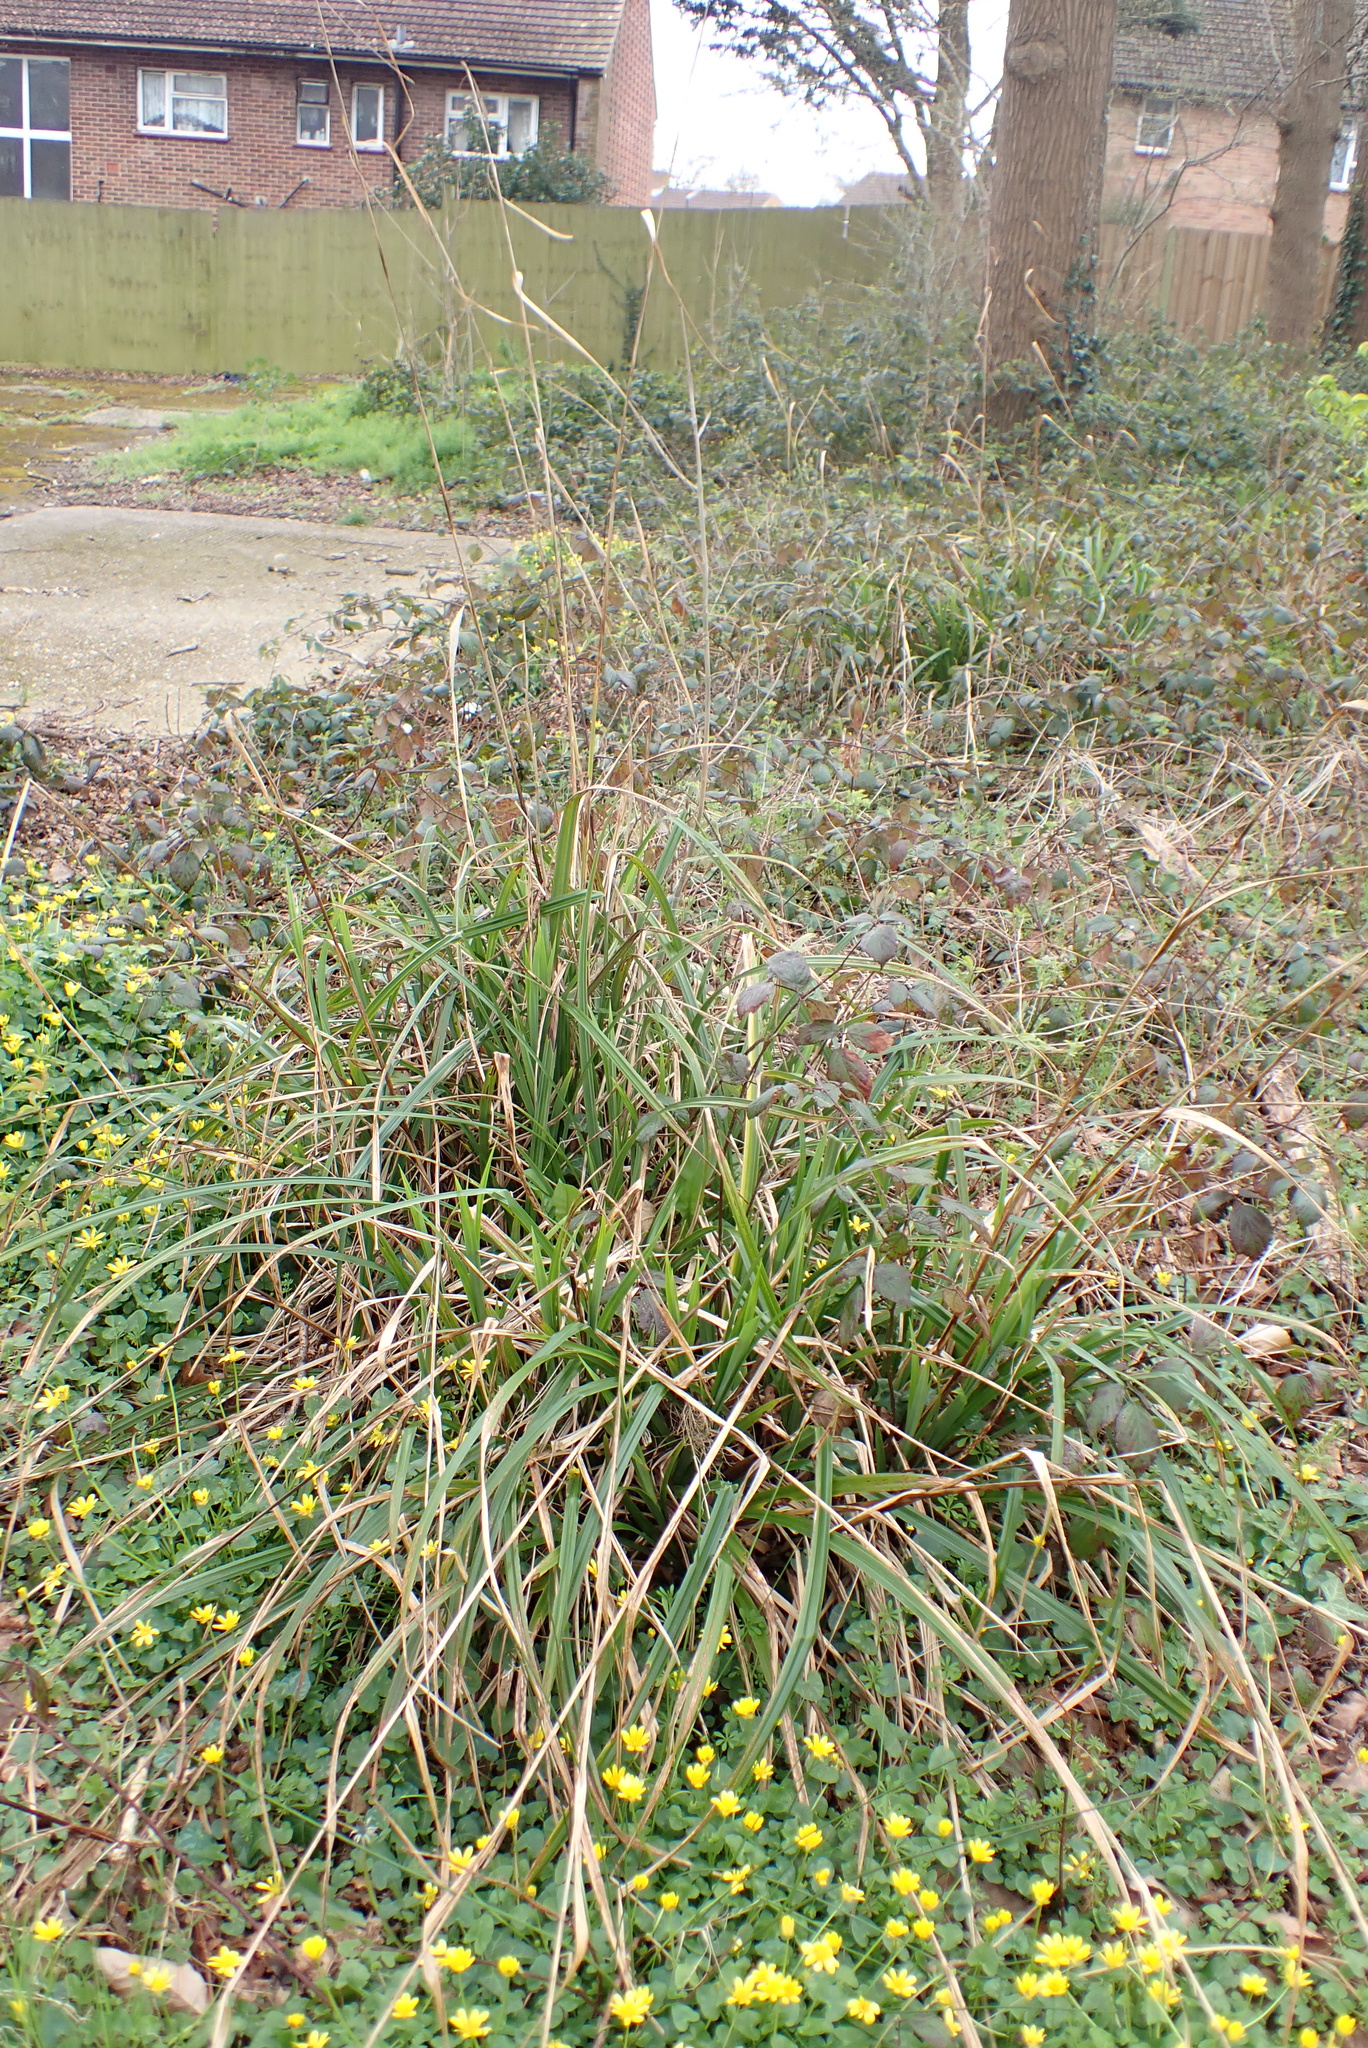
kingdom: Plantae
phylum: Tracheophyta
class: Liliopsida
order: Poales
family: Cyperaceae
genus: Carex
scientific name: Carex pendula
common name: Pendulous sedge
